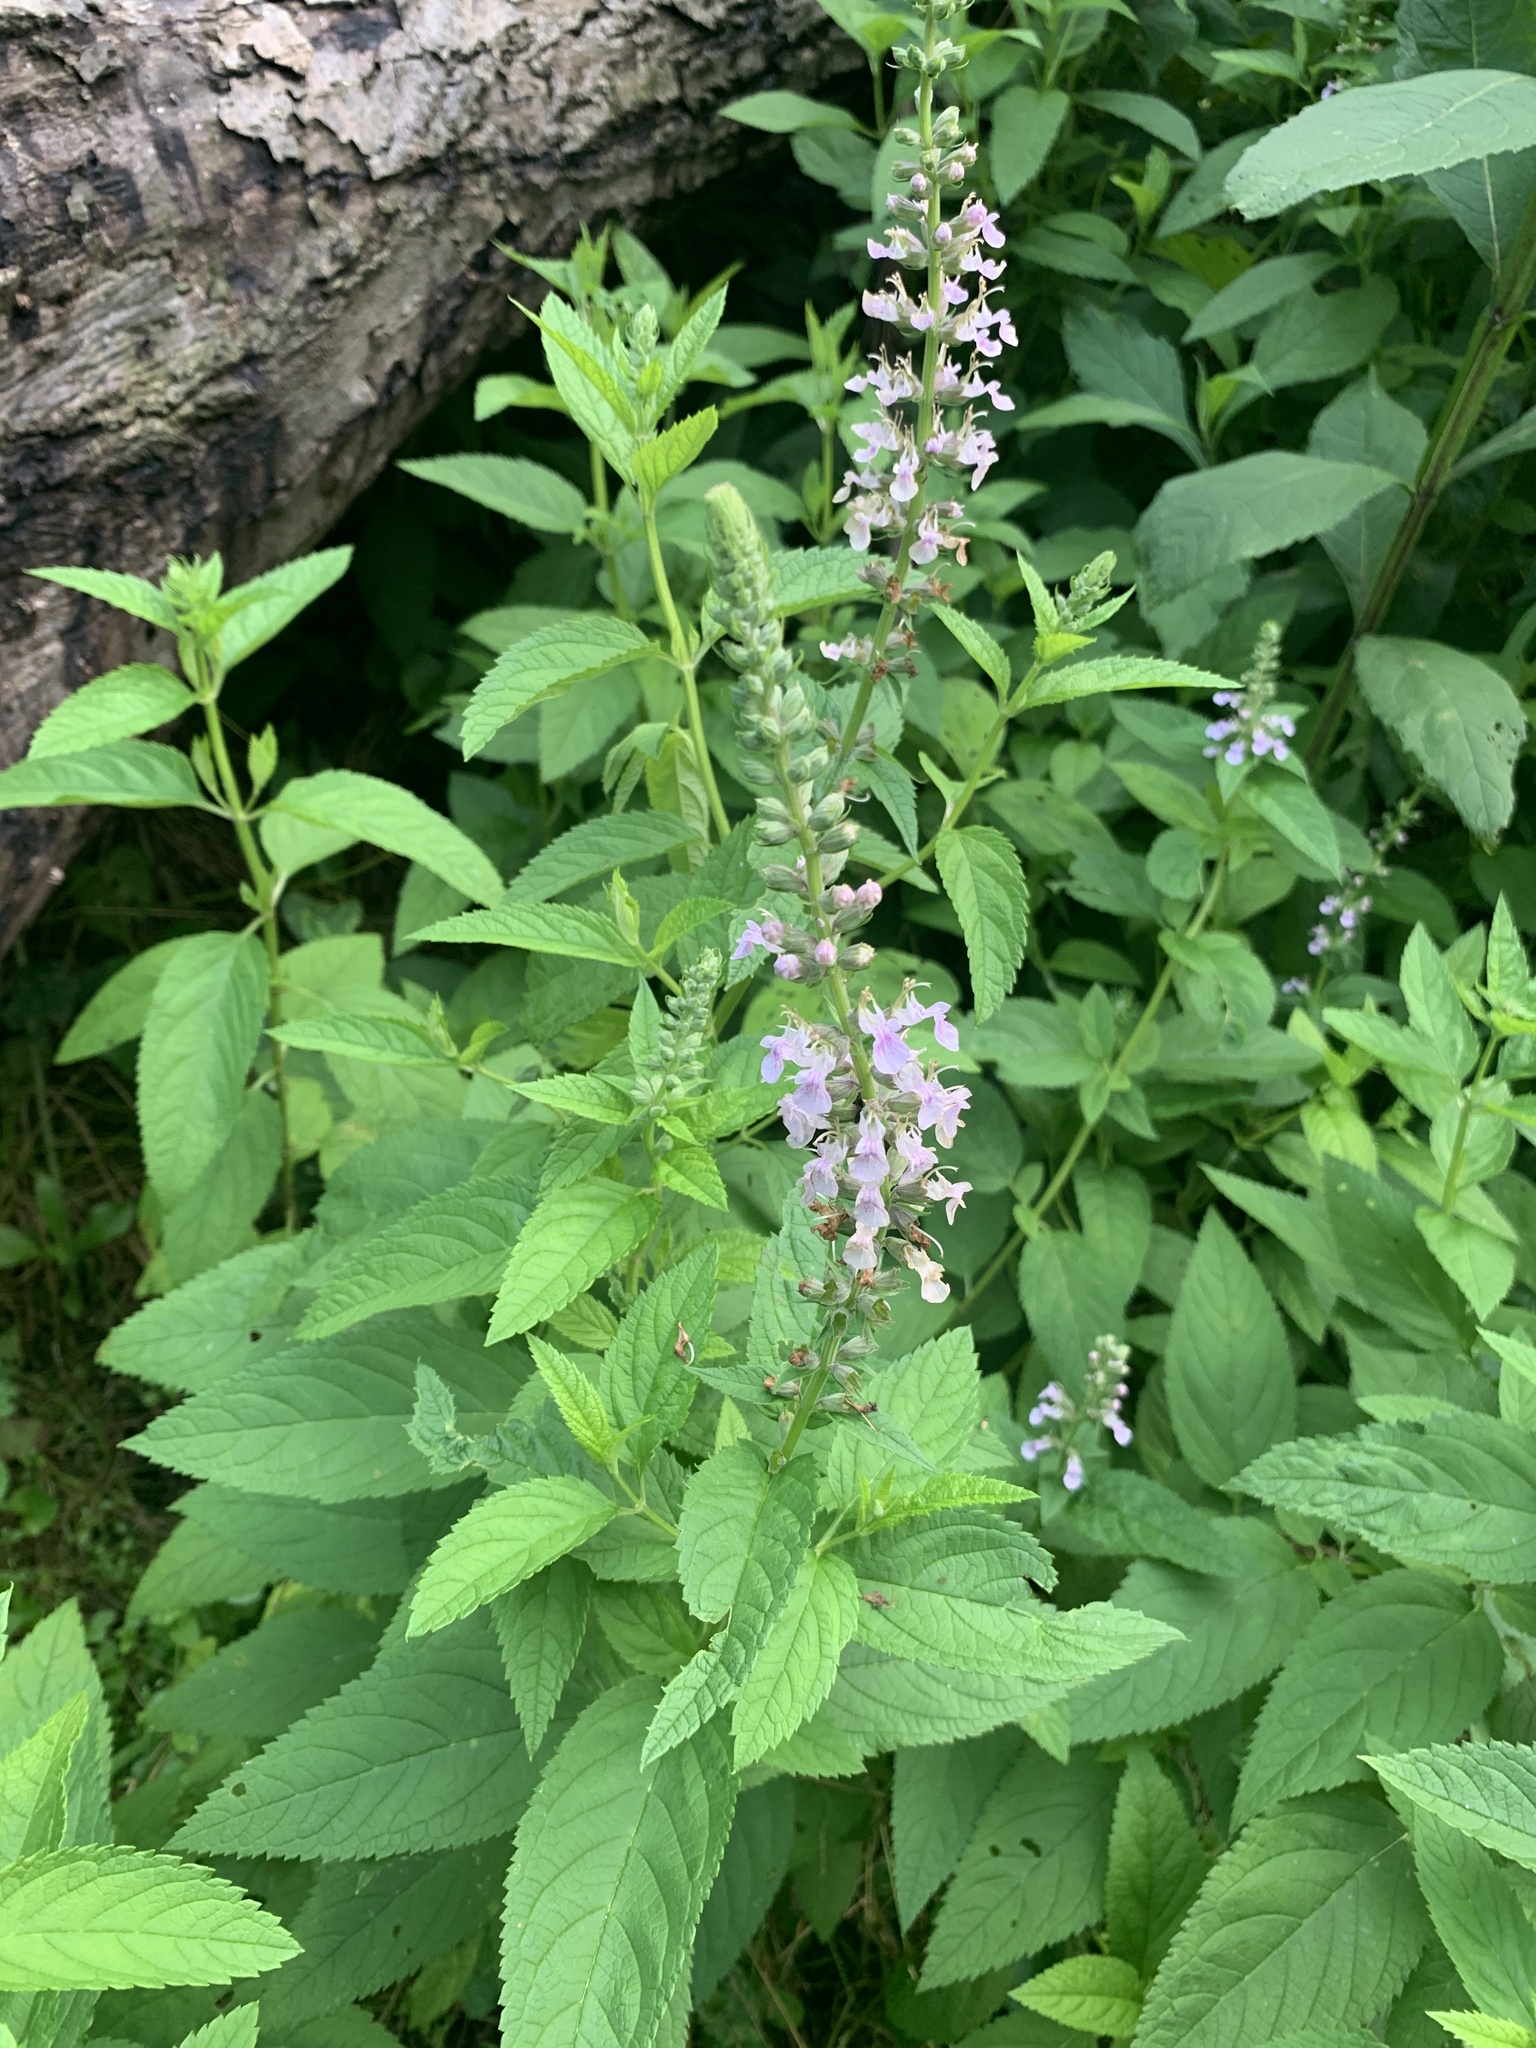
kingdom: Plantae
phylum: Tracheophyta
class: Magnoliopsida
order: Lamiales
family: Lamiaceae
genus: Teucrium
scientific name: Teucrium canadense
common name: American germander
